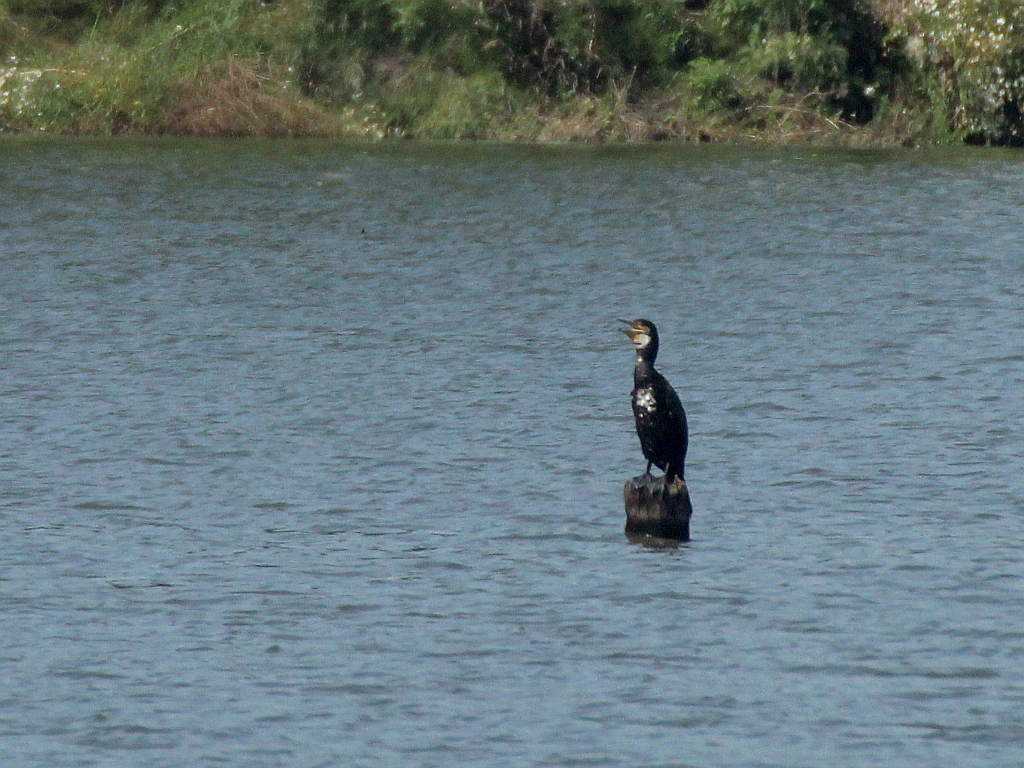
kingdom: Animalia
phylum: Chordata
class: Aves
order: Suliformes
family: Phalacrocoracidae
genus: Phalacrocorax
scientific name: Phalacrocorax carbo
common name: Great cormorant
